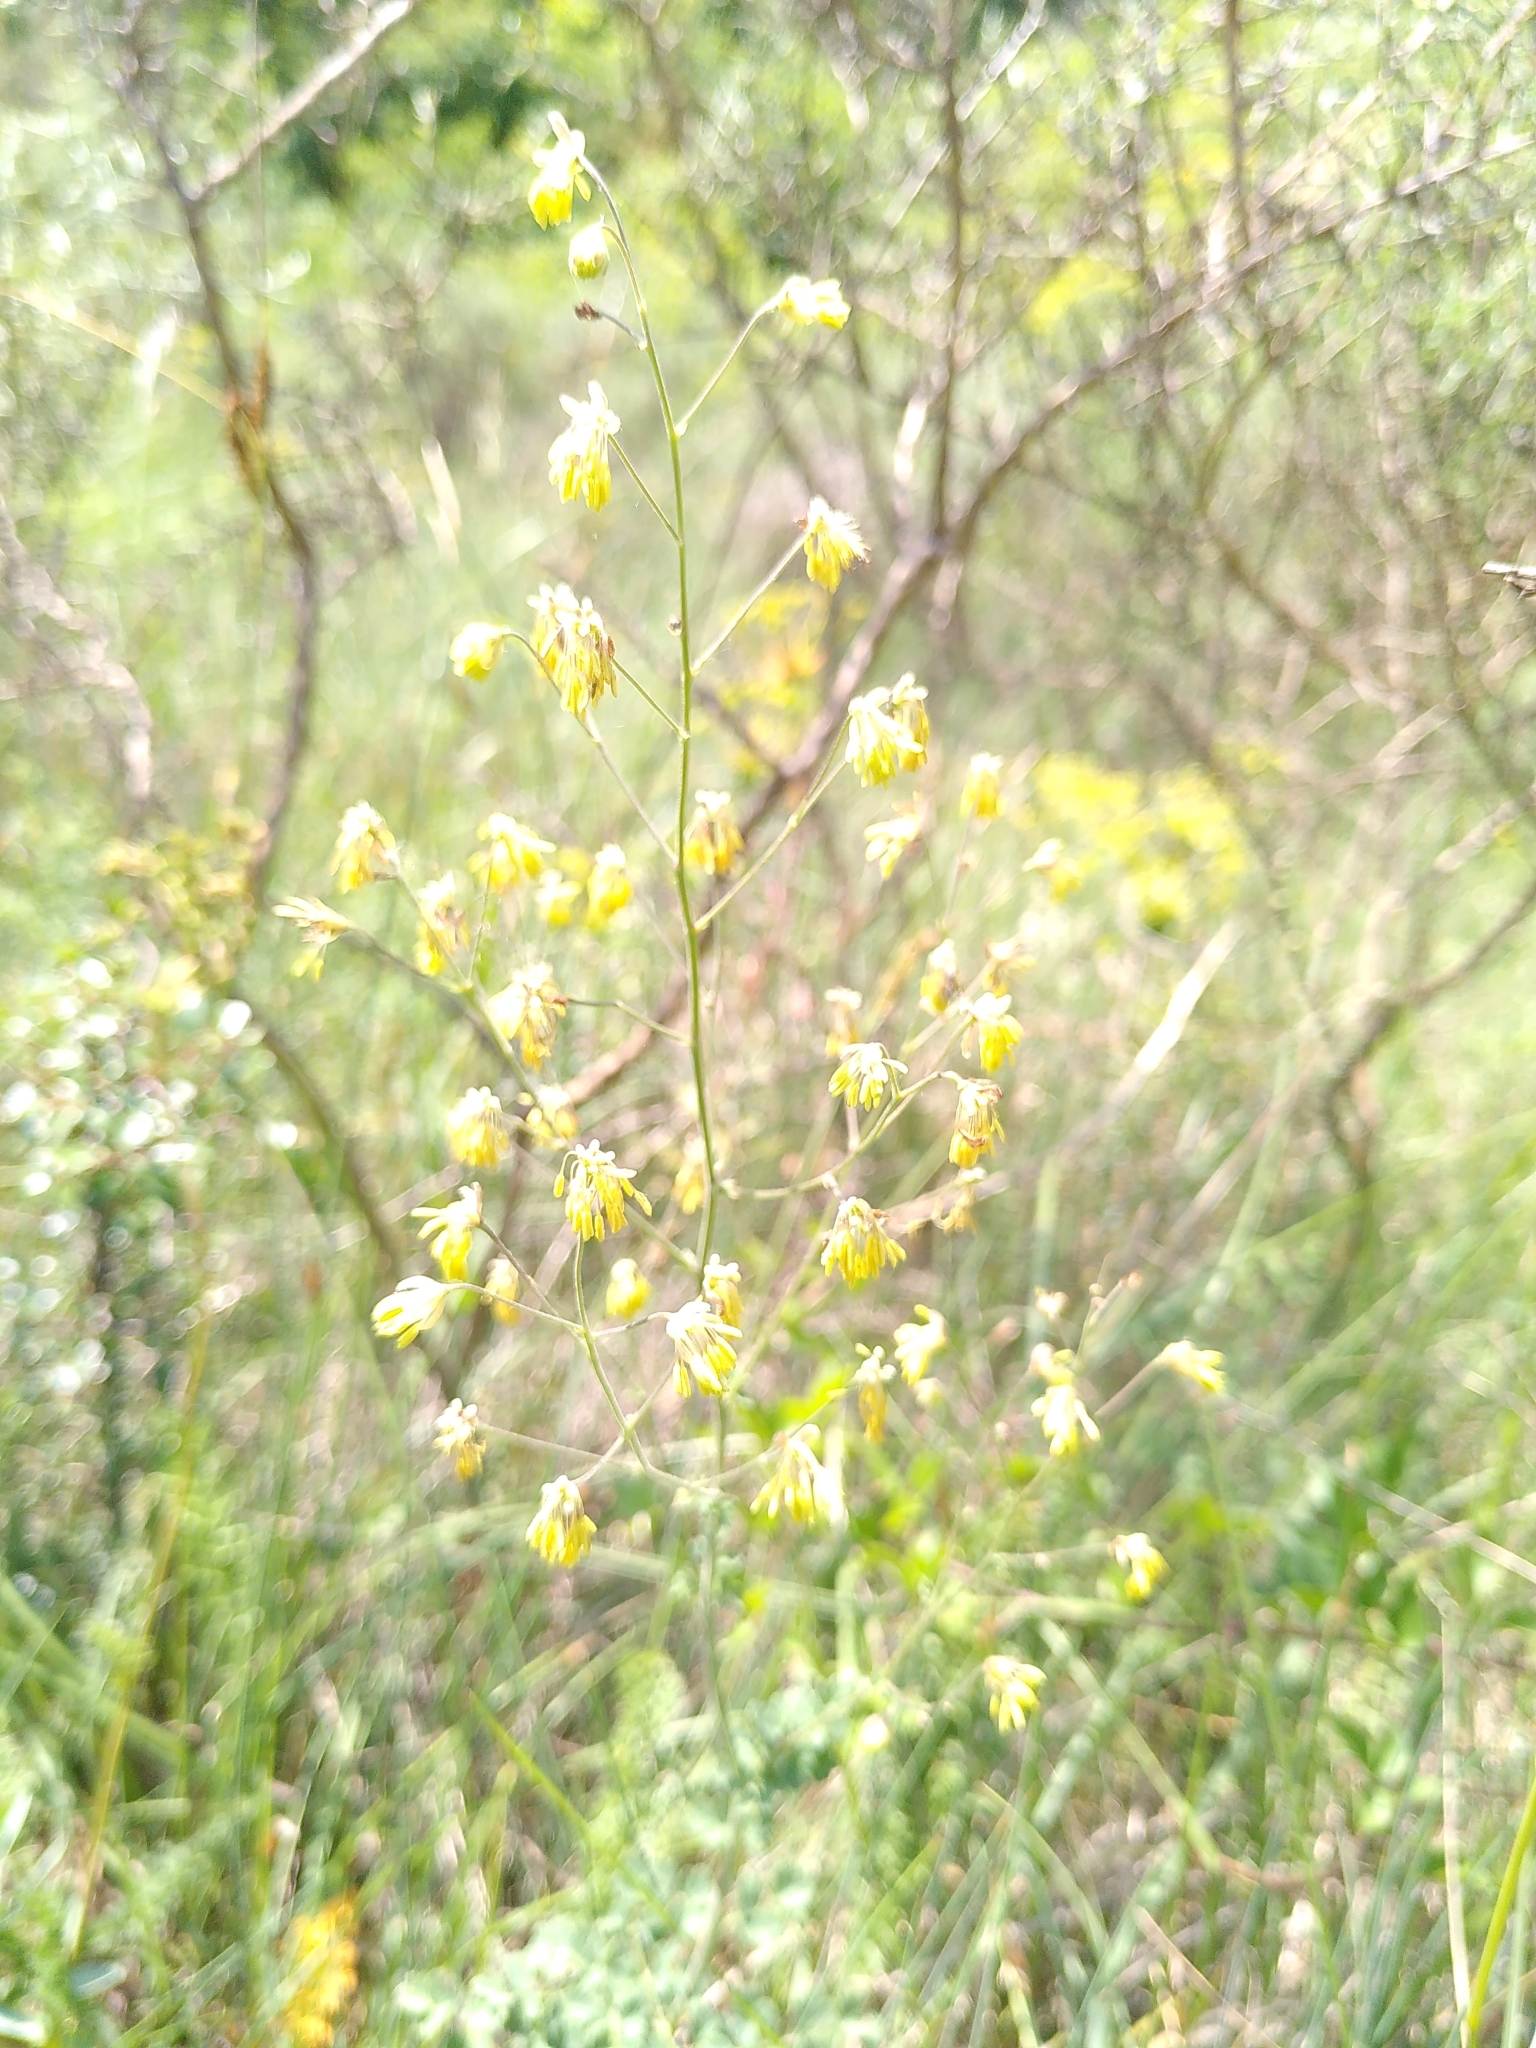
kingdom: Plantae
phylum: Tracheophyta
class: Magnoliopsida
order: Ranunculales
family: Ranunculaceae
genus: Thalictrum
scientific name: Thalictrum minus
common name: Lesser meadow-rue
